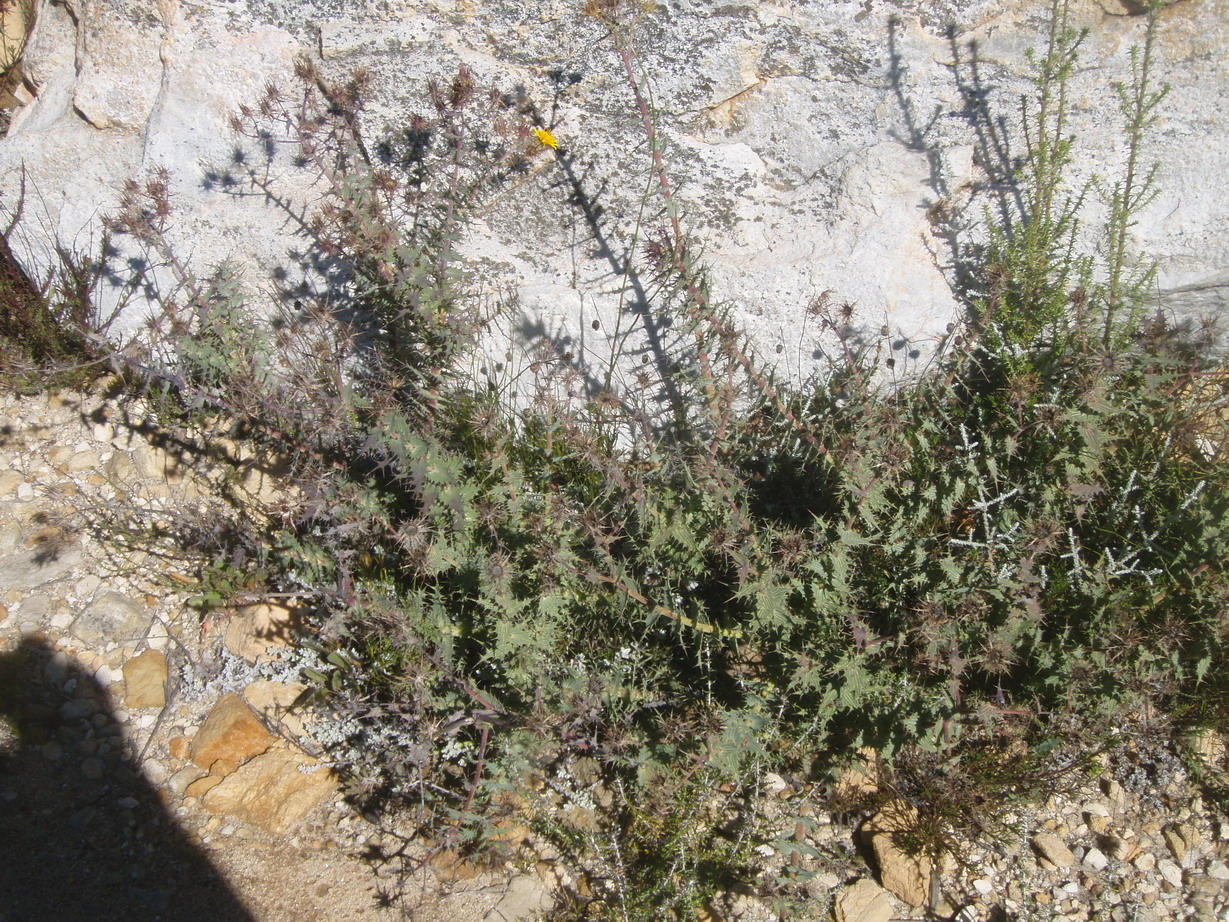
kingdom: Plantae
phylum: Tracheophyta
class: Magnoliopsida
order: Asterales
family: Asteraceae
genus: Berkheya
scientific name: Berkheya cruciata
